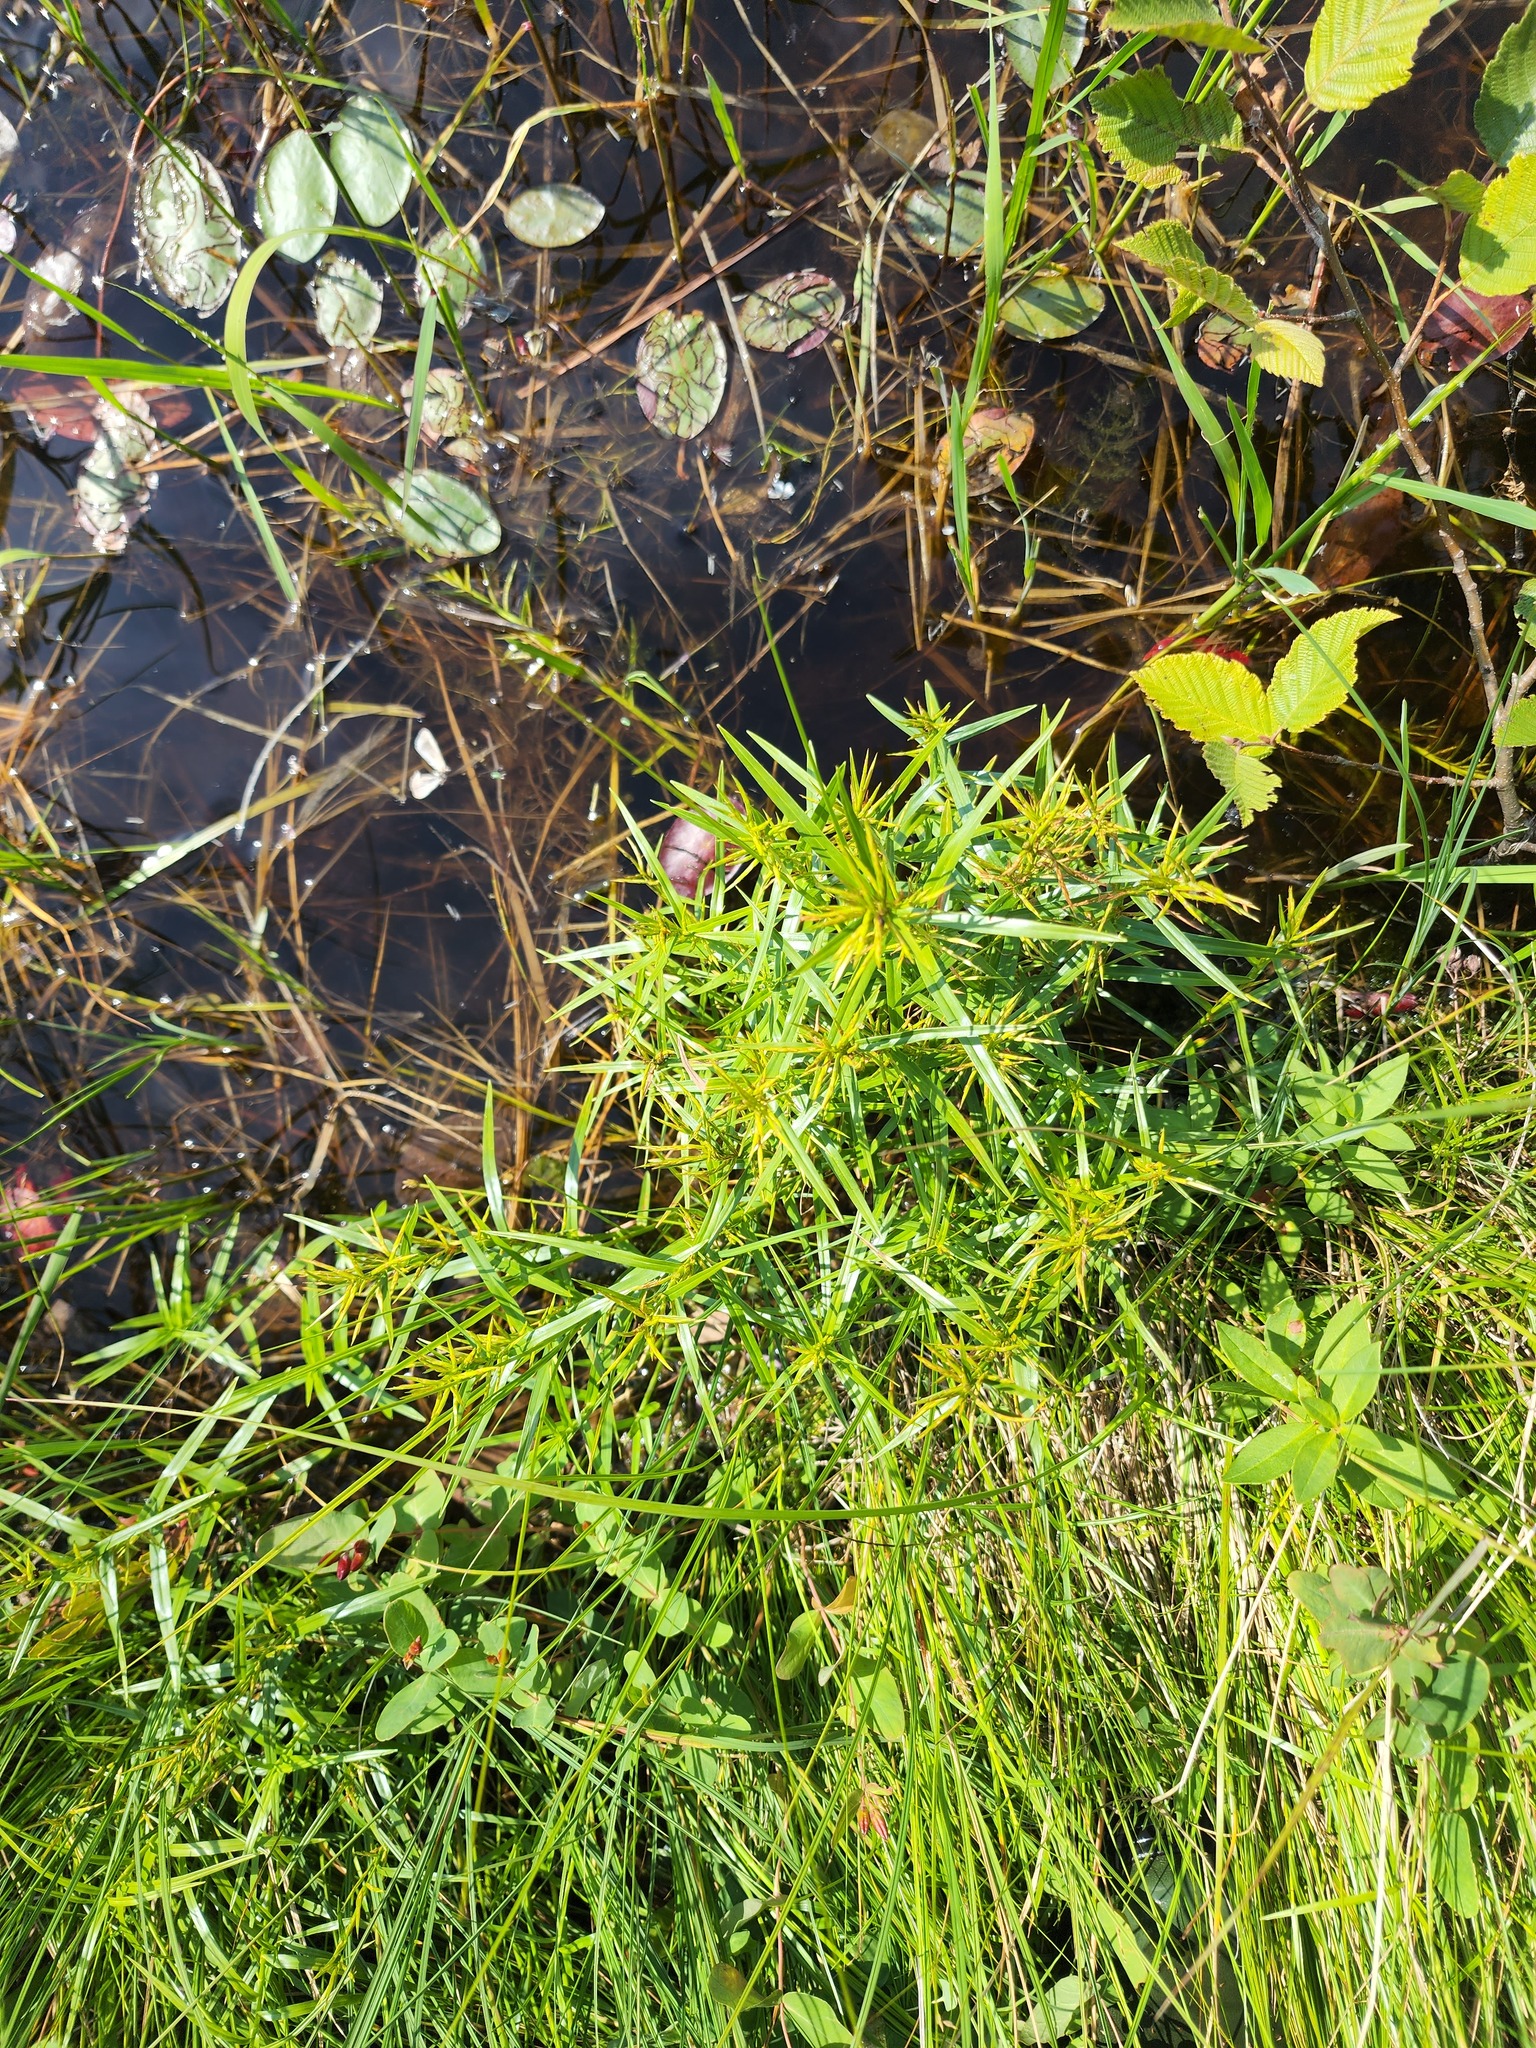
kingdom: Plantae
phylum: Tracheophyta
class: Liliopsida
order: Poales
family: Cyperaceae
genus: Dulichium
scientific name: Dulichium arundinaceum
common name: Three-way sedge
